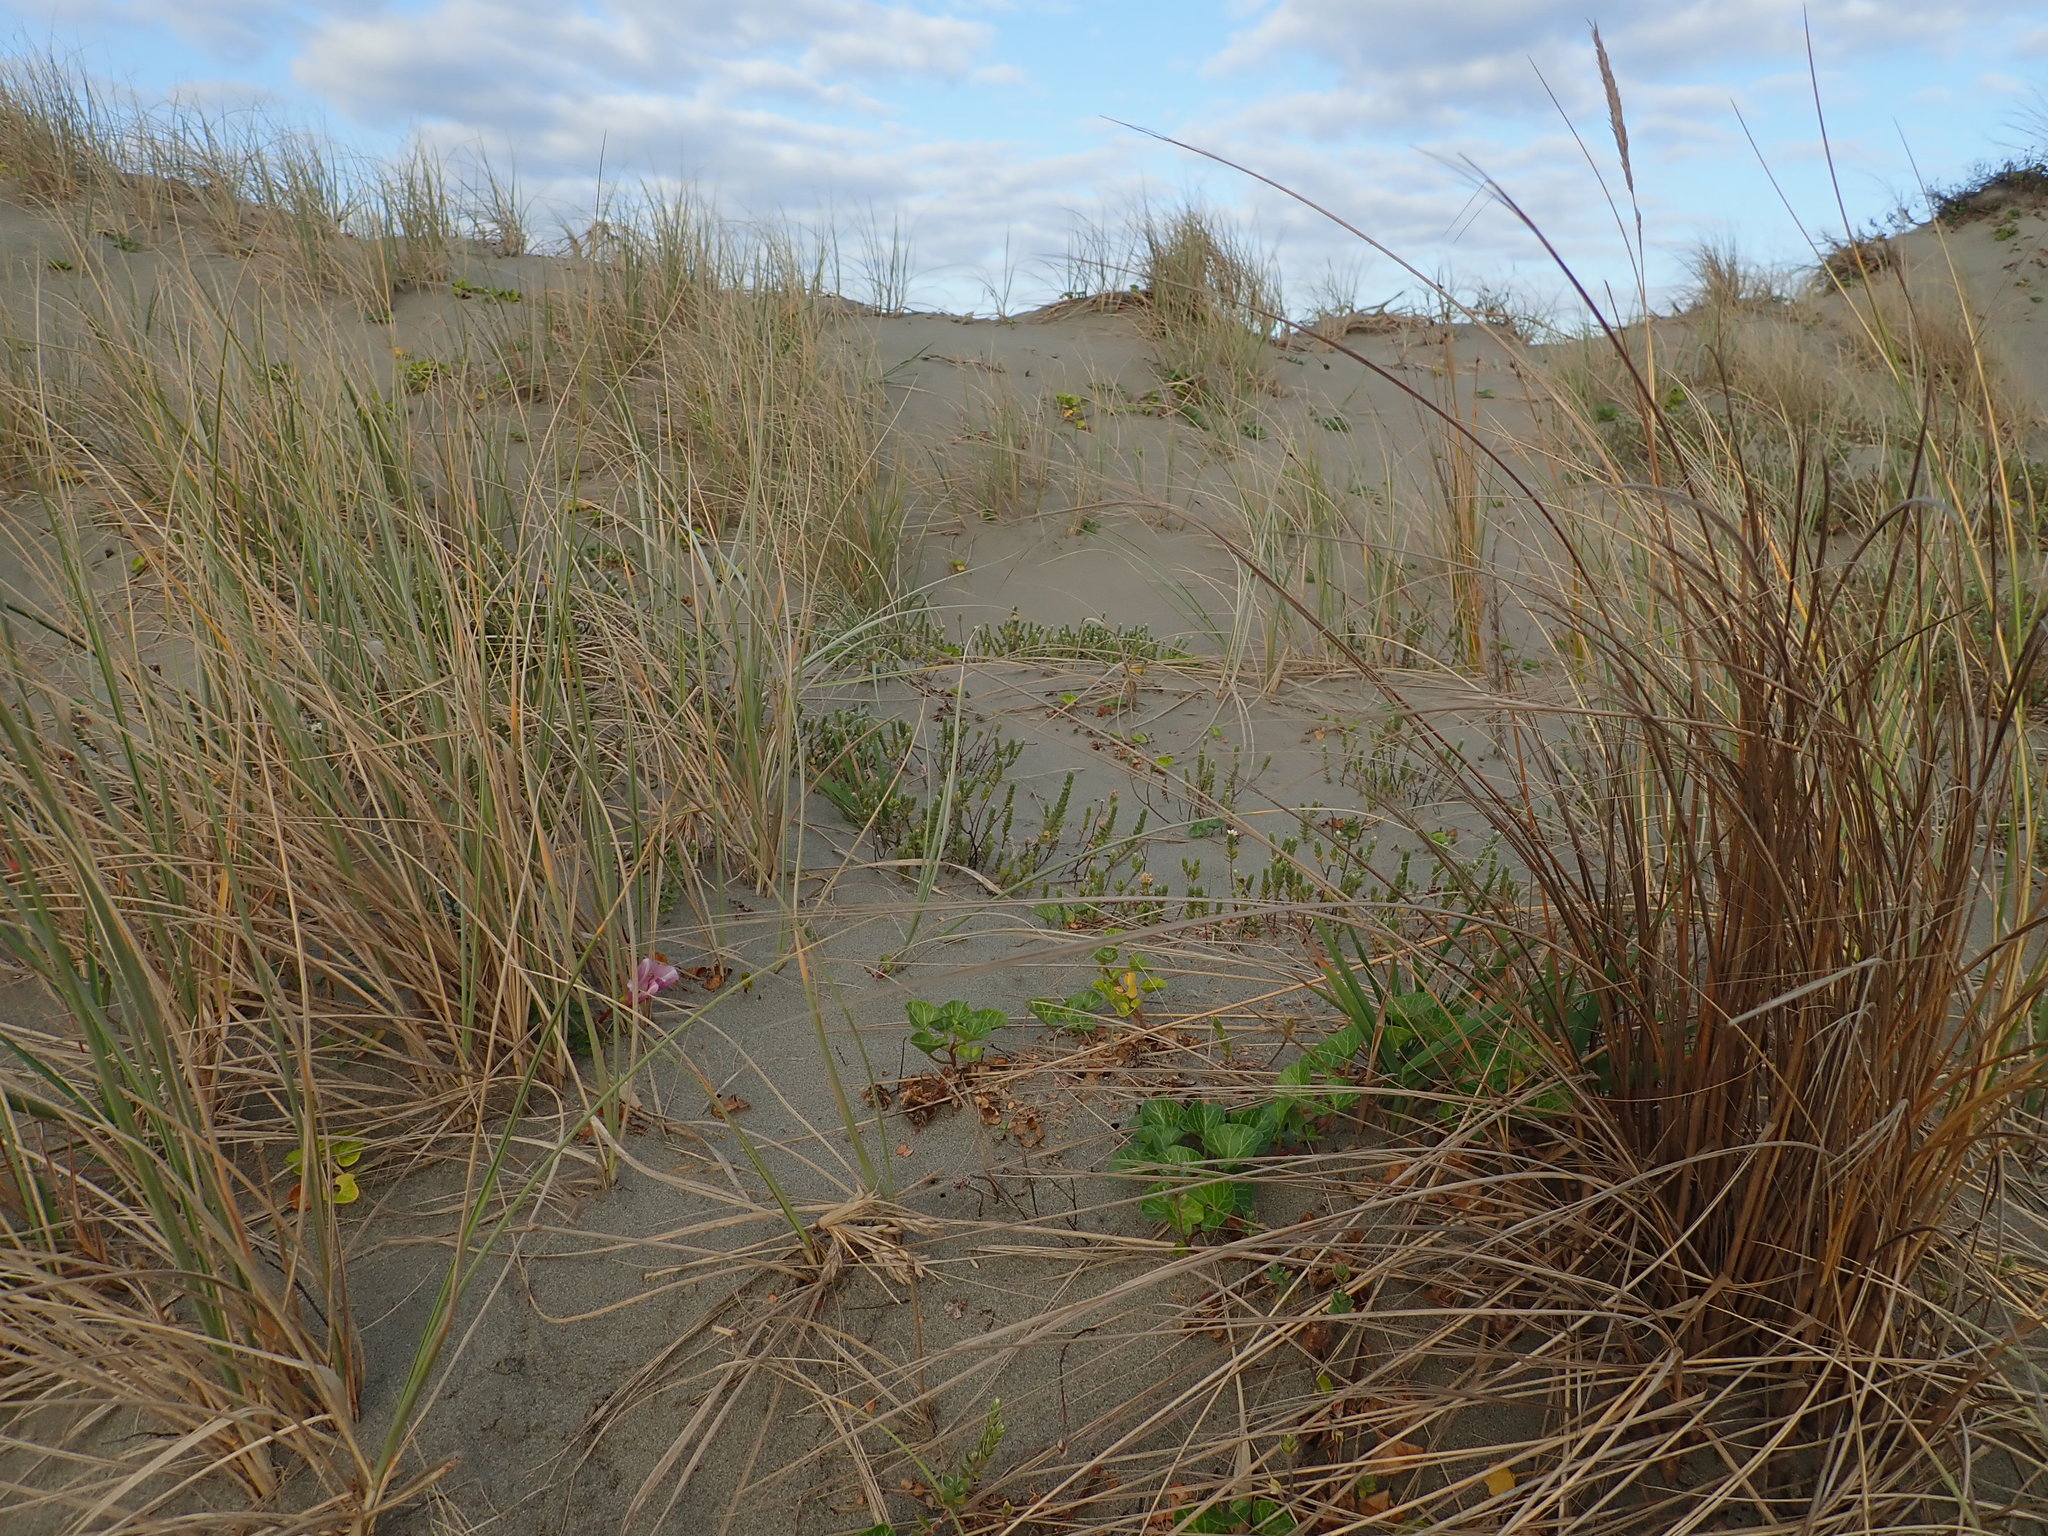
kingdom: Plantae
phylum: Tracheophyta
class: Magnoliopsida
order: Solanales
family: Convolvulaceae
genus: Calystegia
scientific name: Calystegia soldanella
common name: Sea bindweed
